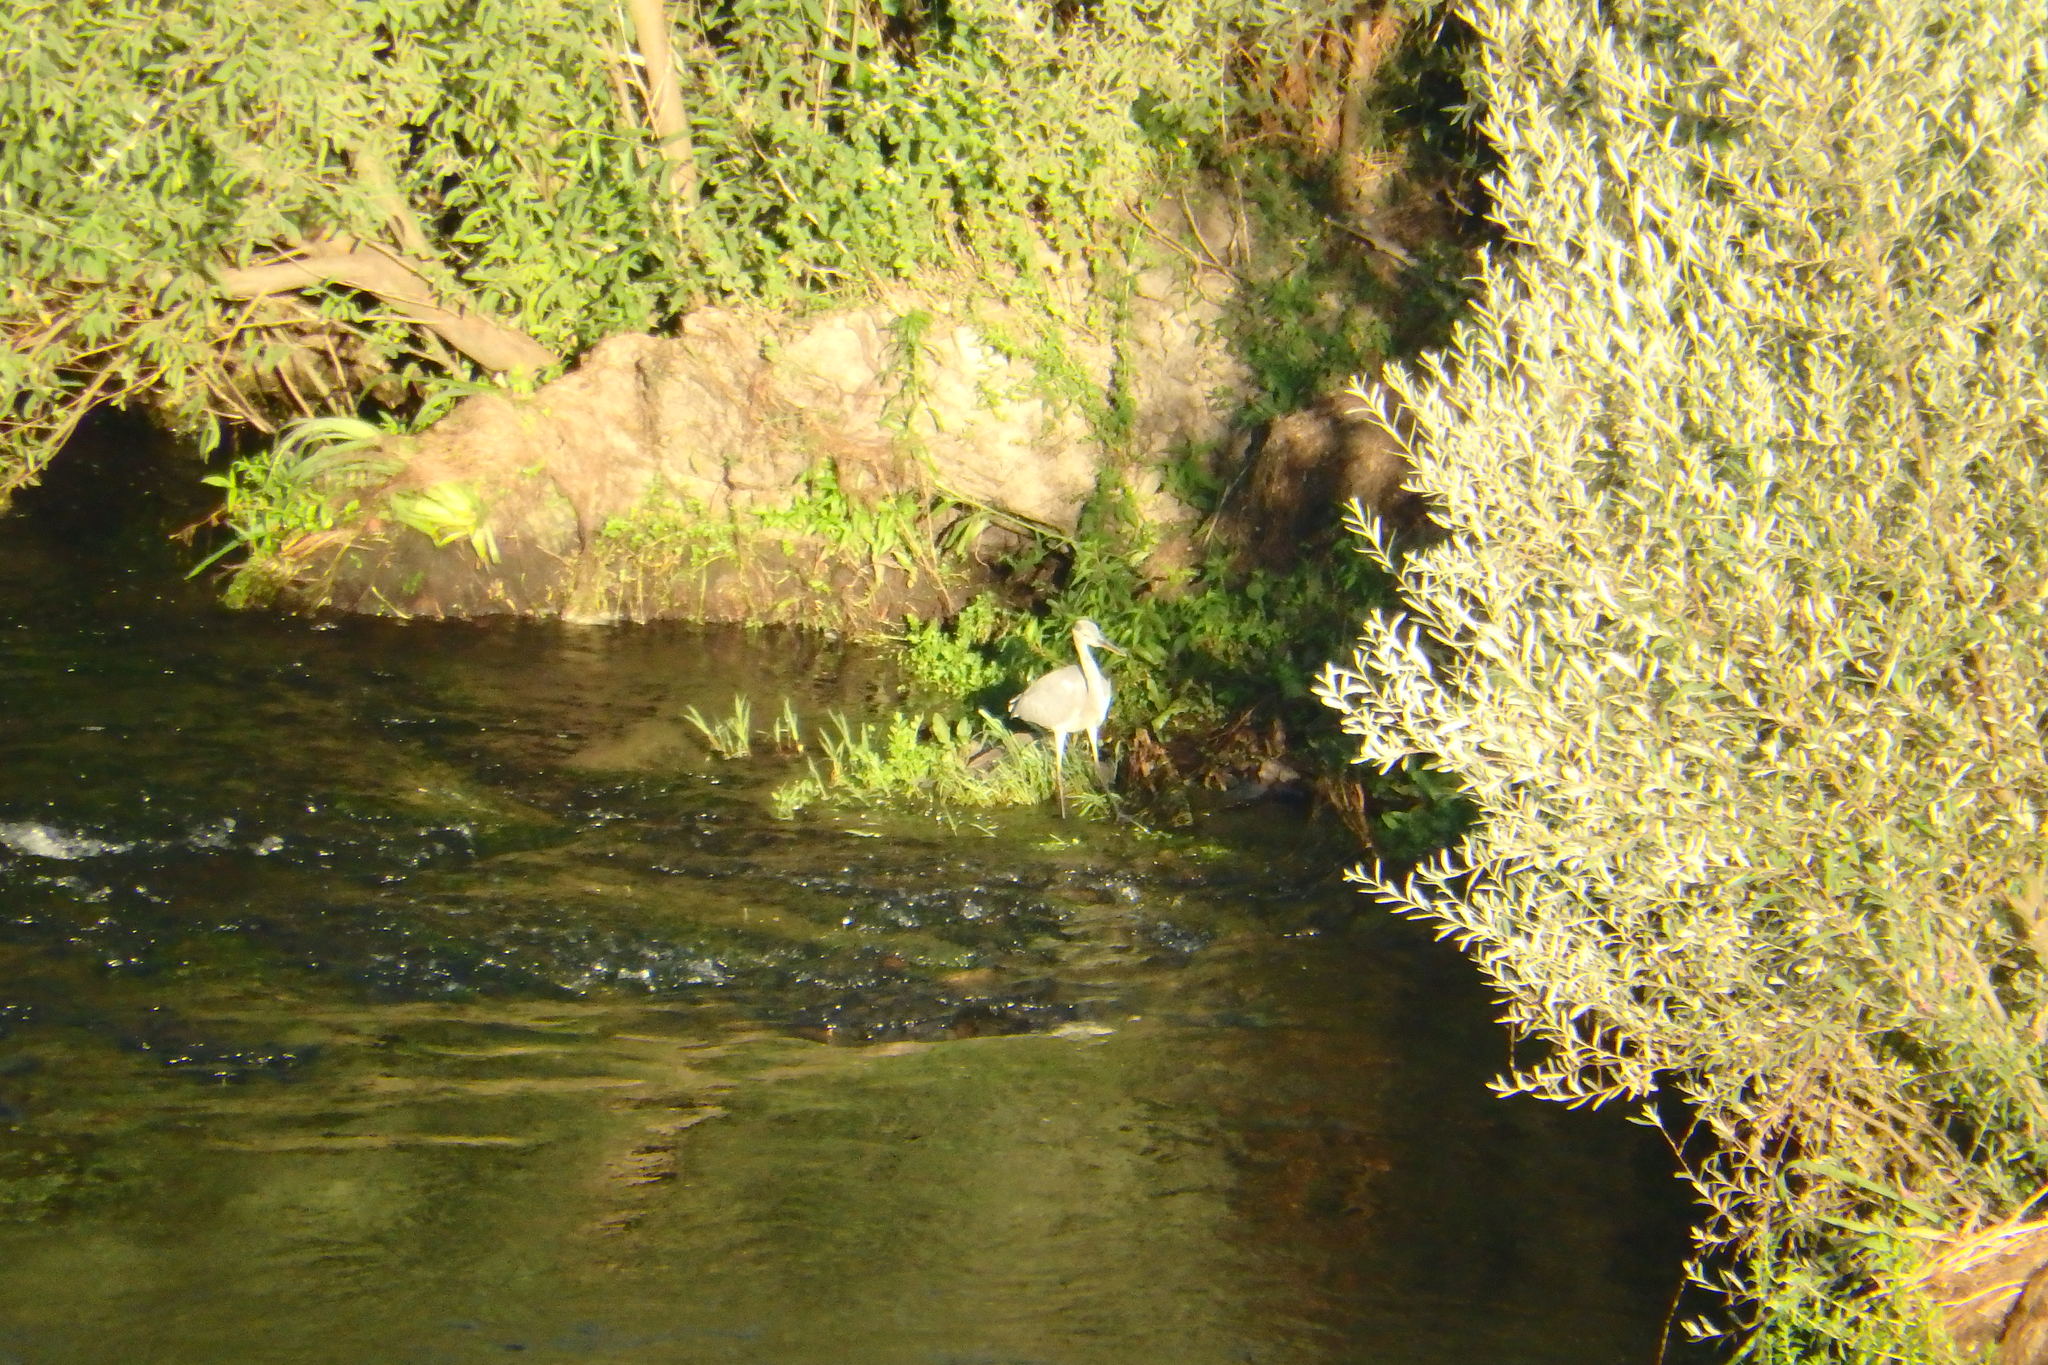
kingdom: Animalia
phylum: Chordata
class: Aves
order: Pelecaniformes
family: Ardeidae
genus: Ardea
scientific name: Ardea cinerea
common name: Grey heron
